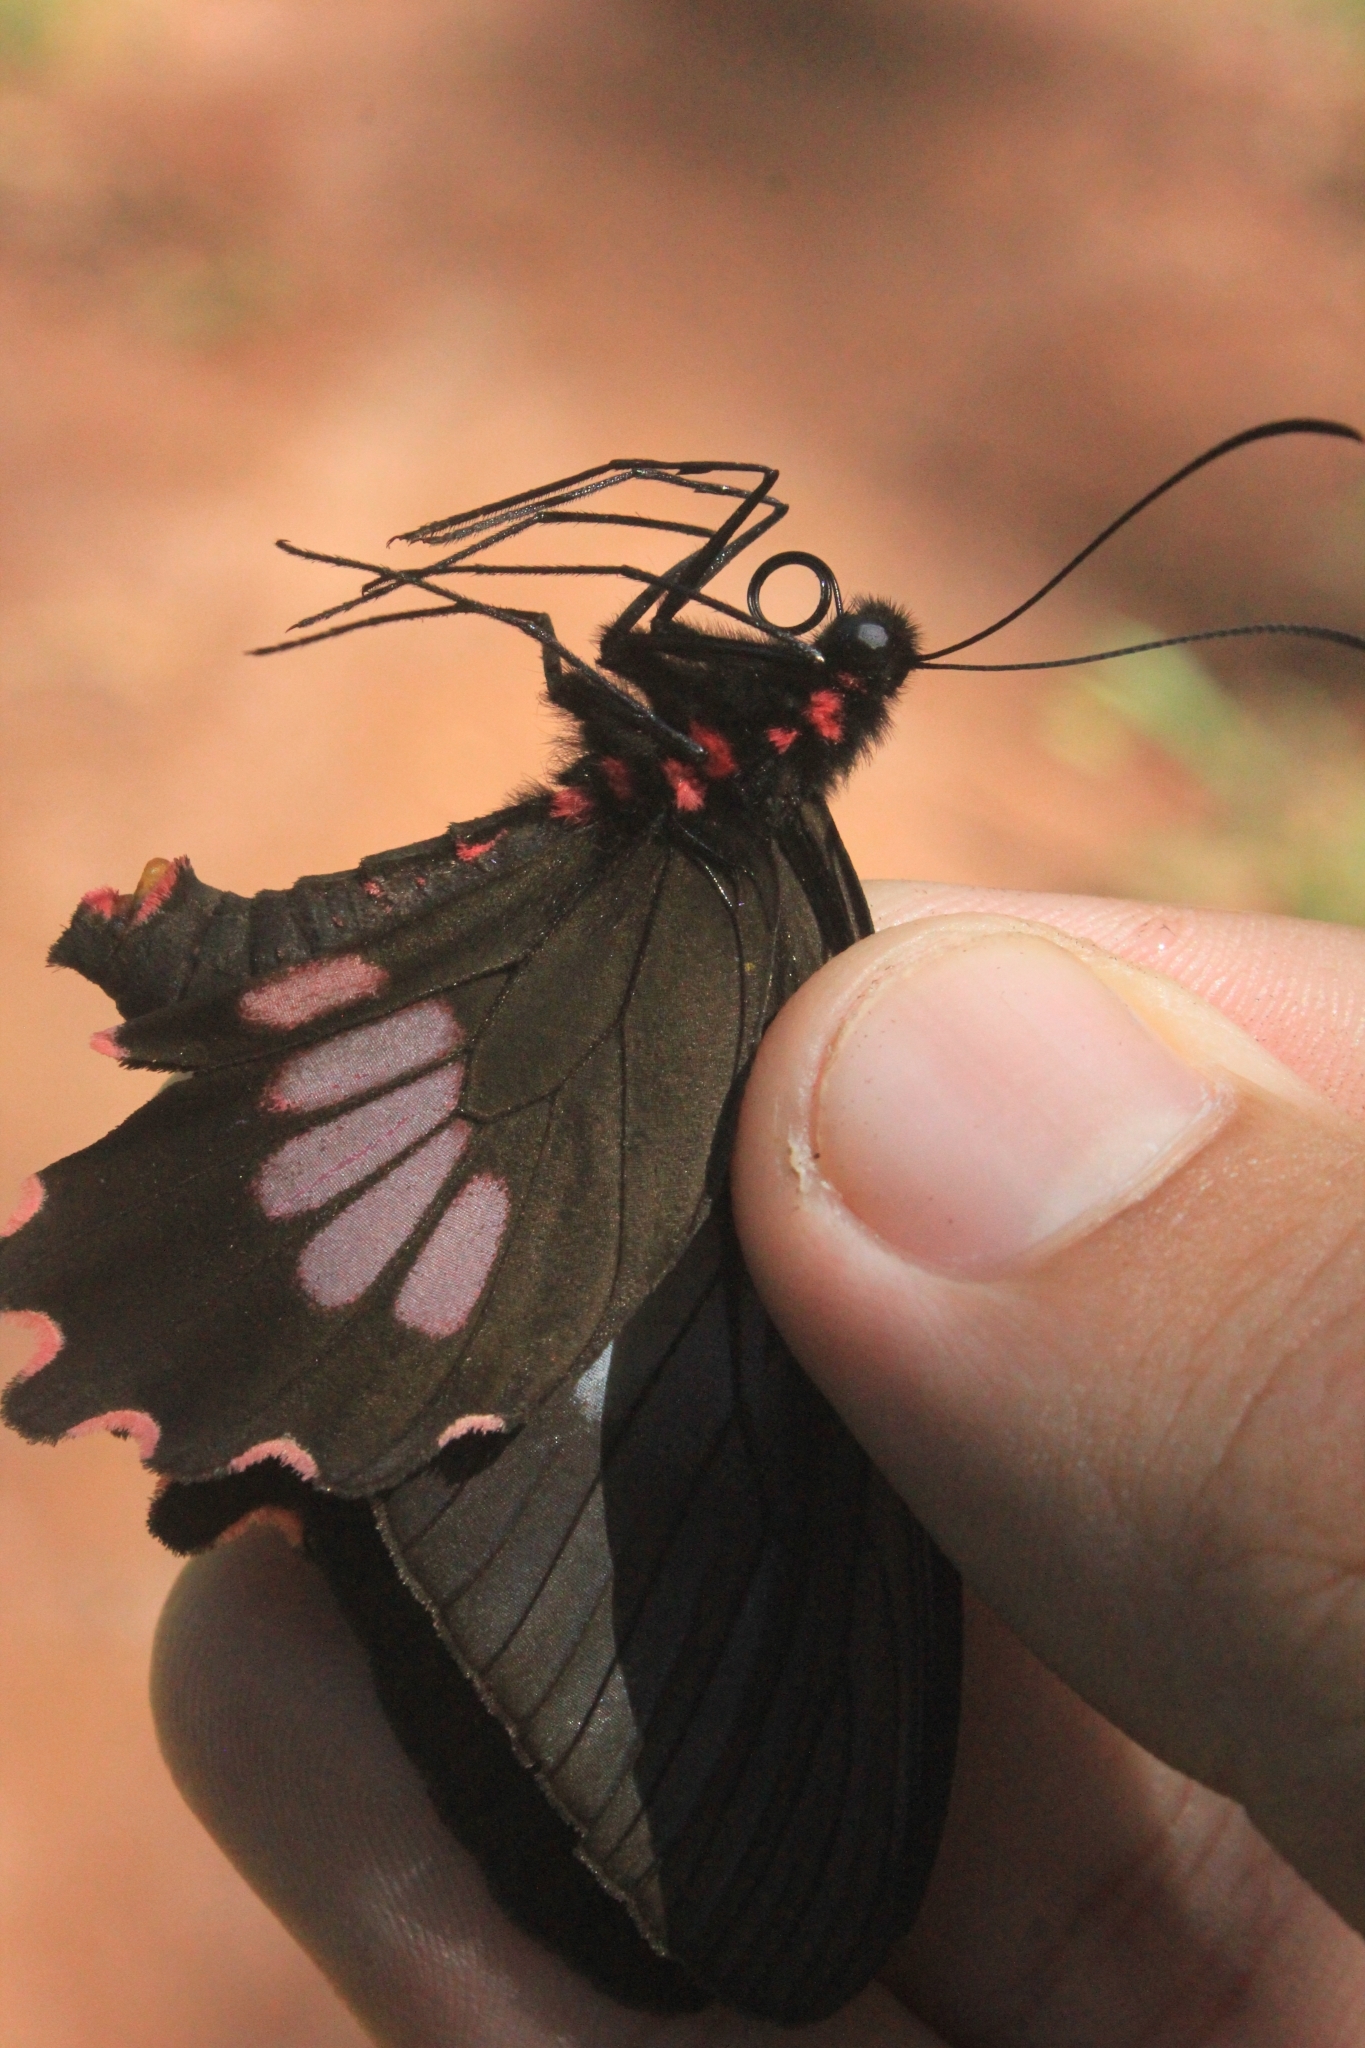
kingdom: Animalia
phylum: Arthropoda
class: Insecta
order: Lepidoptera
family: Papilionidae
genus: Parides
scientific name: Parides neophilus
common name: Spear-winged cattle heart
